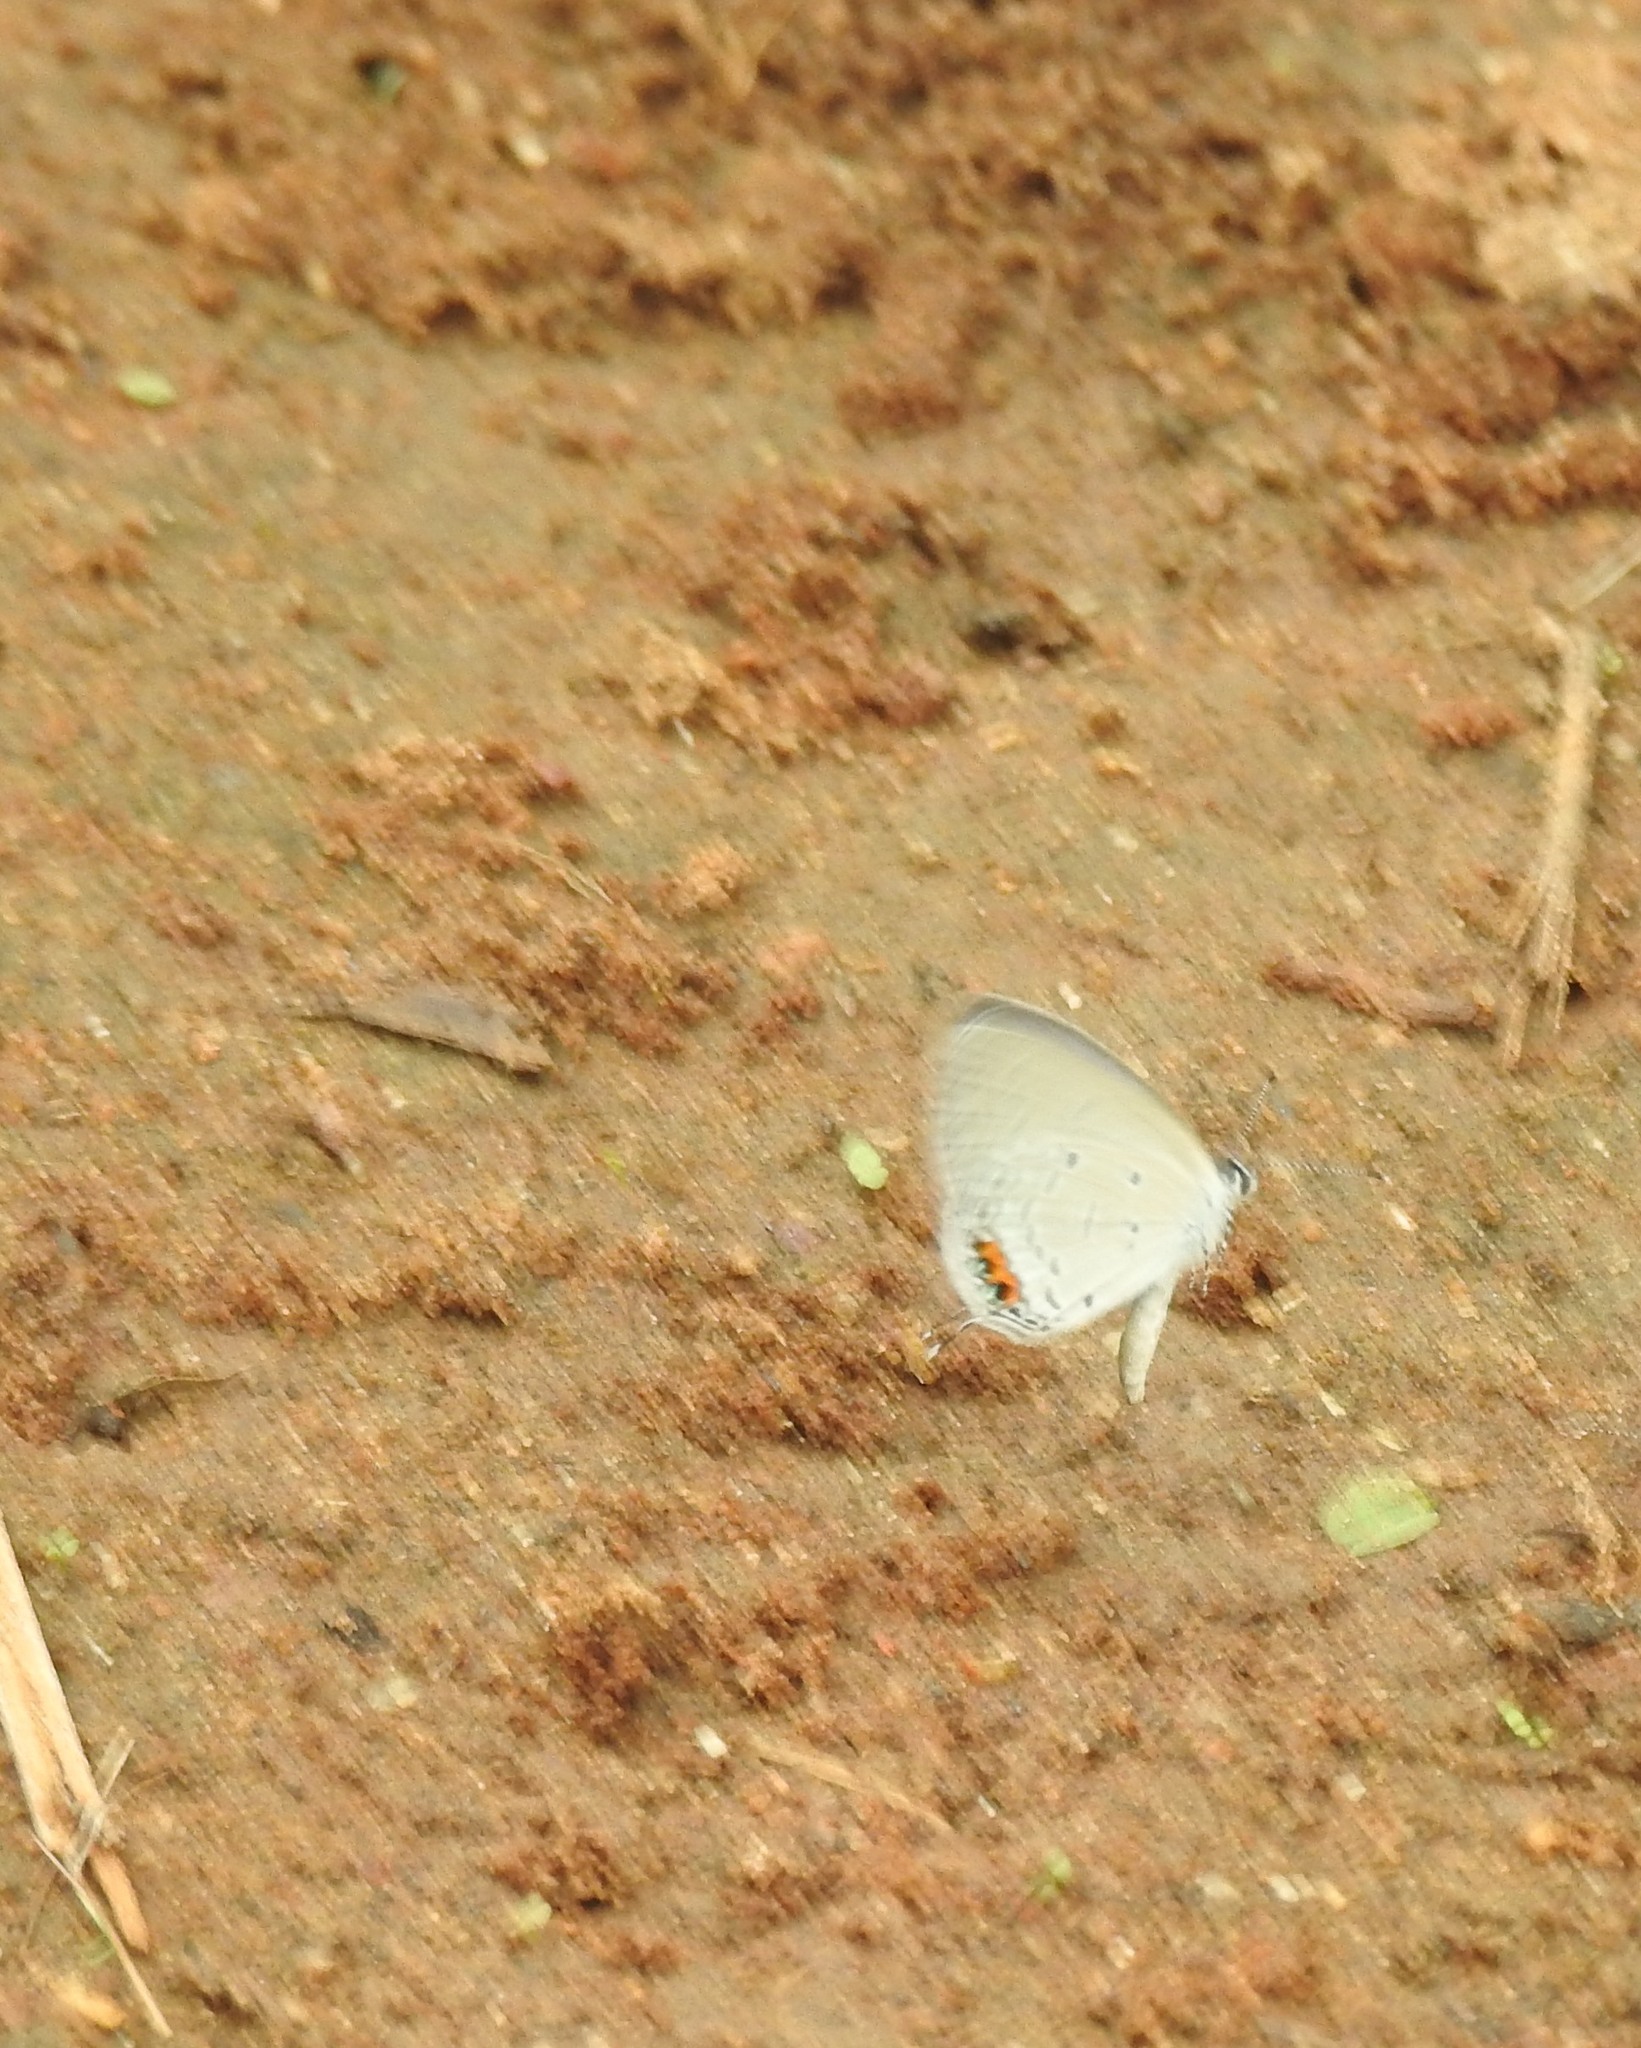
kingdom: Animalia
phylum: Arthropoda
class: Insecta
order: Lepidoptera
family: Lycaenidae
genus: Everes
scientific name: Everes lacturnus
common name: Orange-tipped pea-blue
